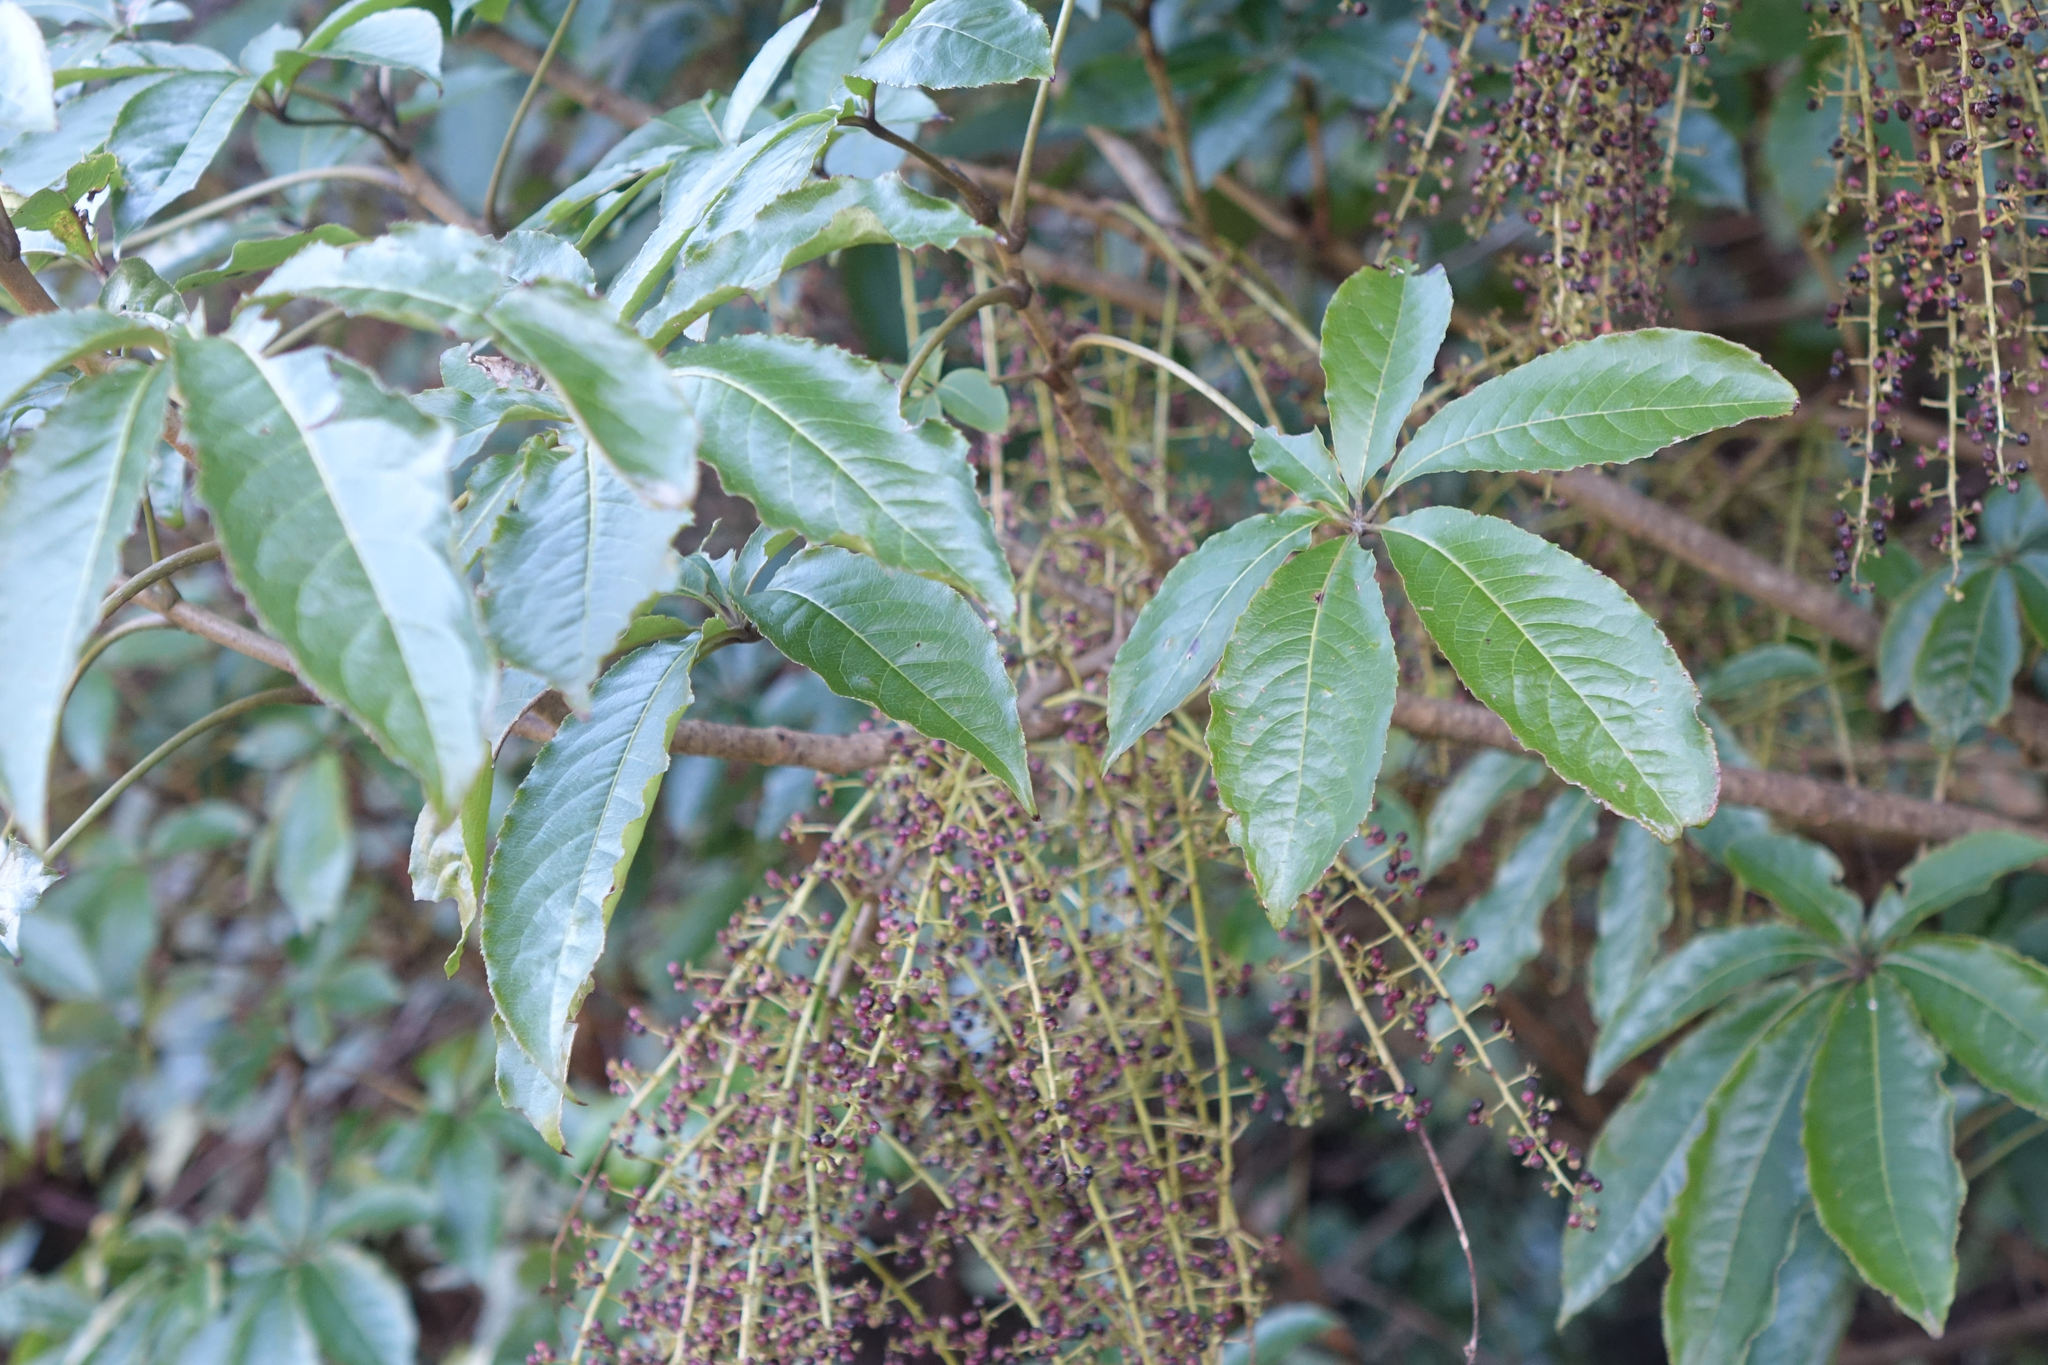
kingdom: Plantae
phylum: Tracheophyta
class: Magnoliopsida
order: Apiales
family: Araliaceae
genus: Schefflera
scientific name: Schefflera digitata
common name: Pate
